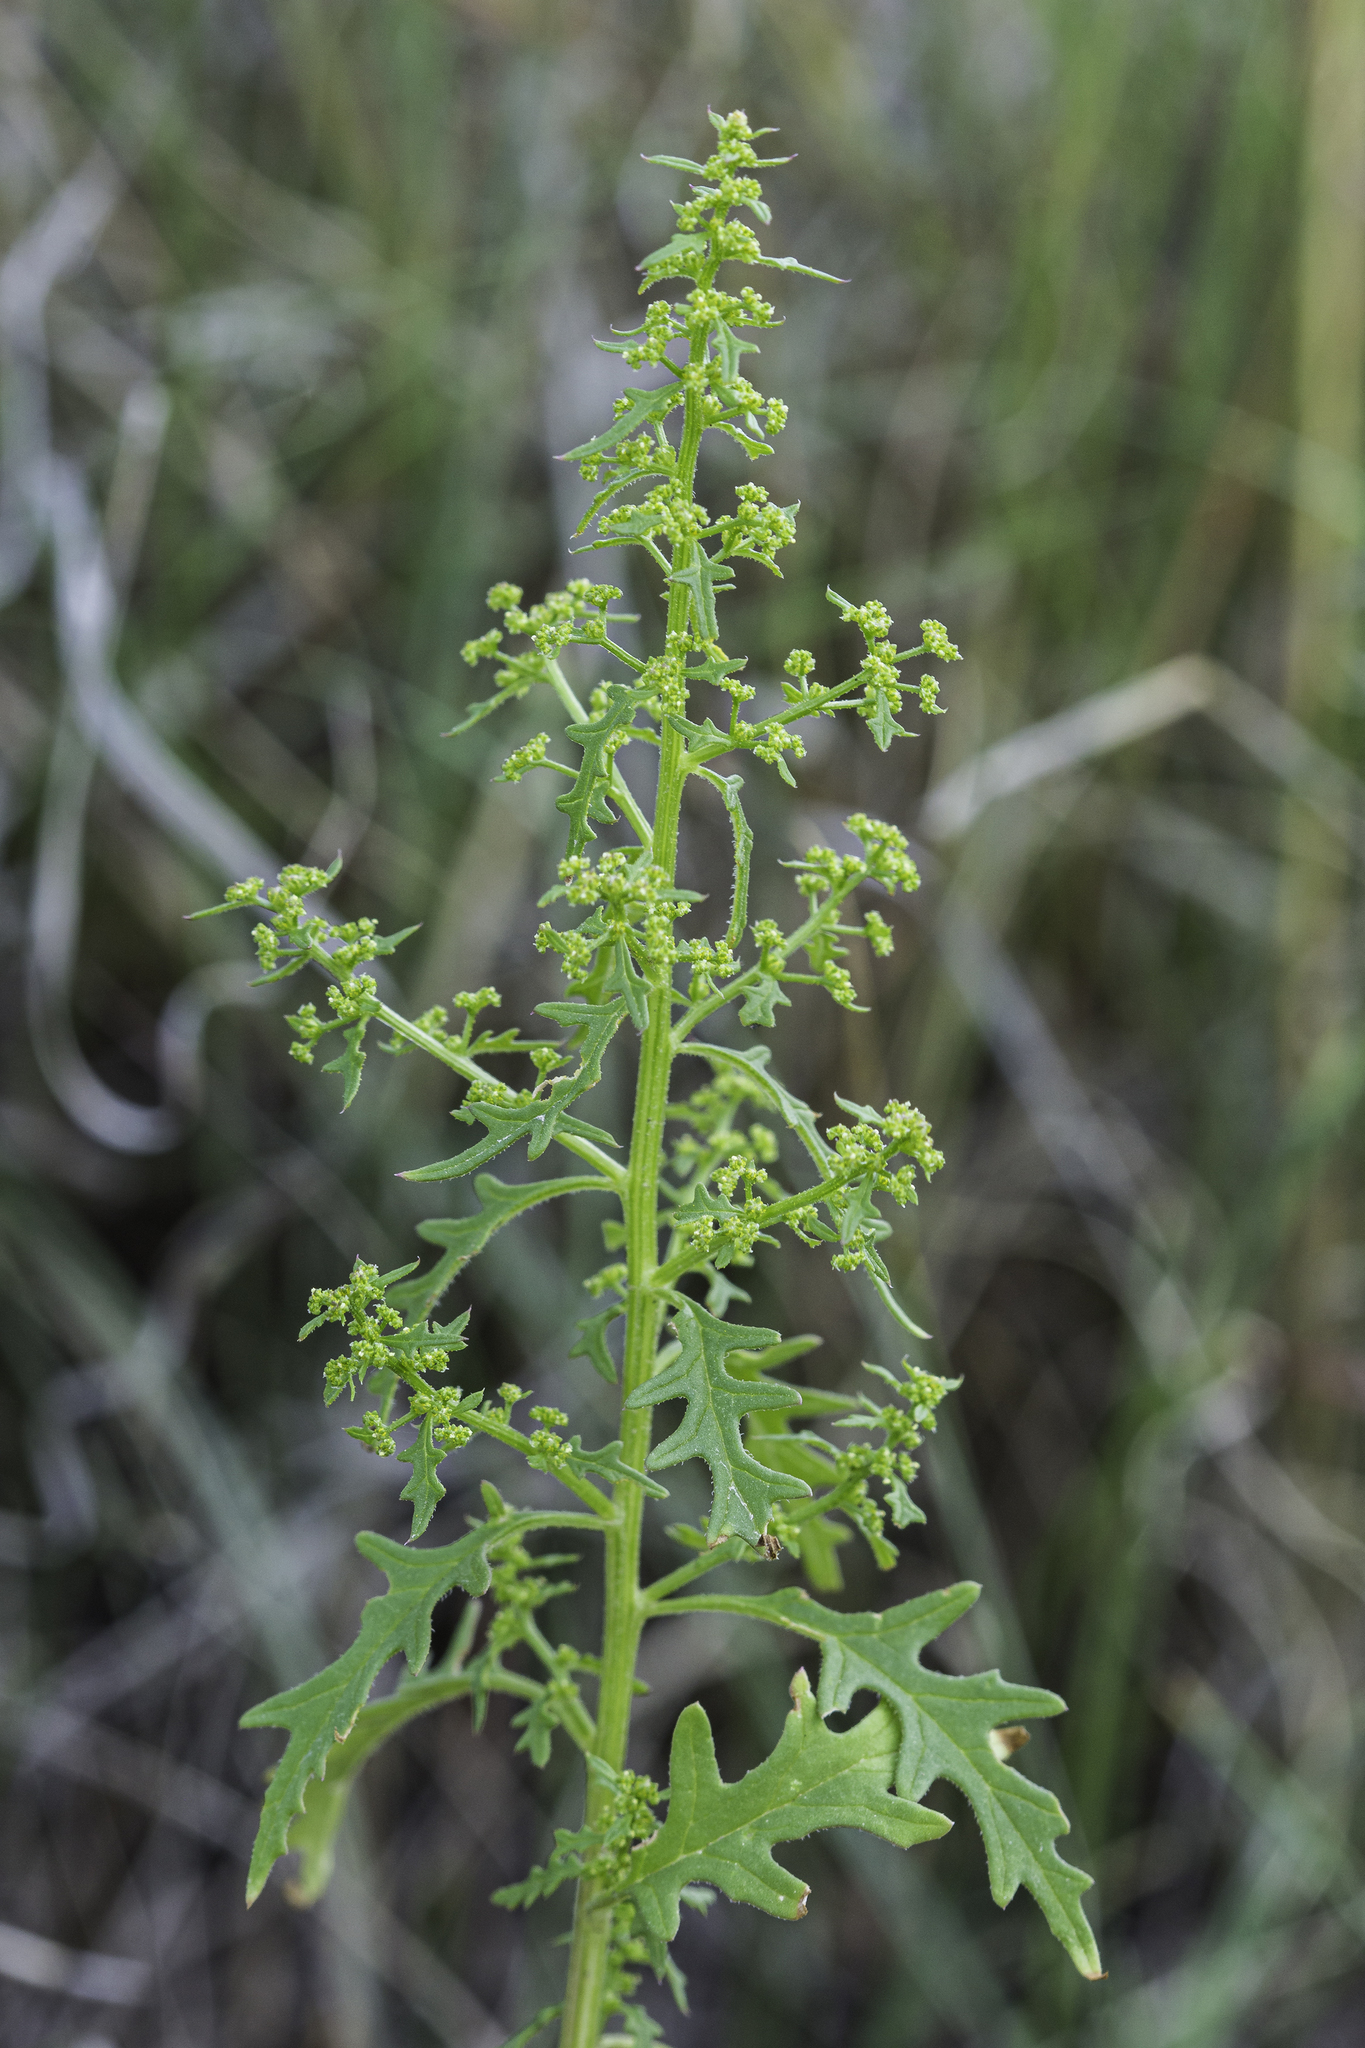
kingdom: Plantae
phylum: Tracheophyta
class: Magnoliopsida
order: Caryophyllales
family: Amaranthaceae
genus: Dysphania
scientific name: Dysphania incisa
